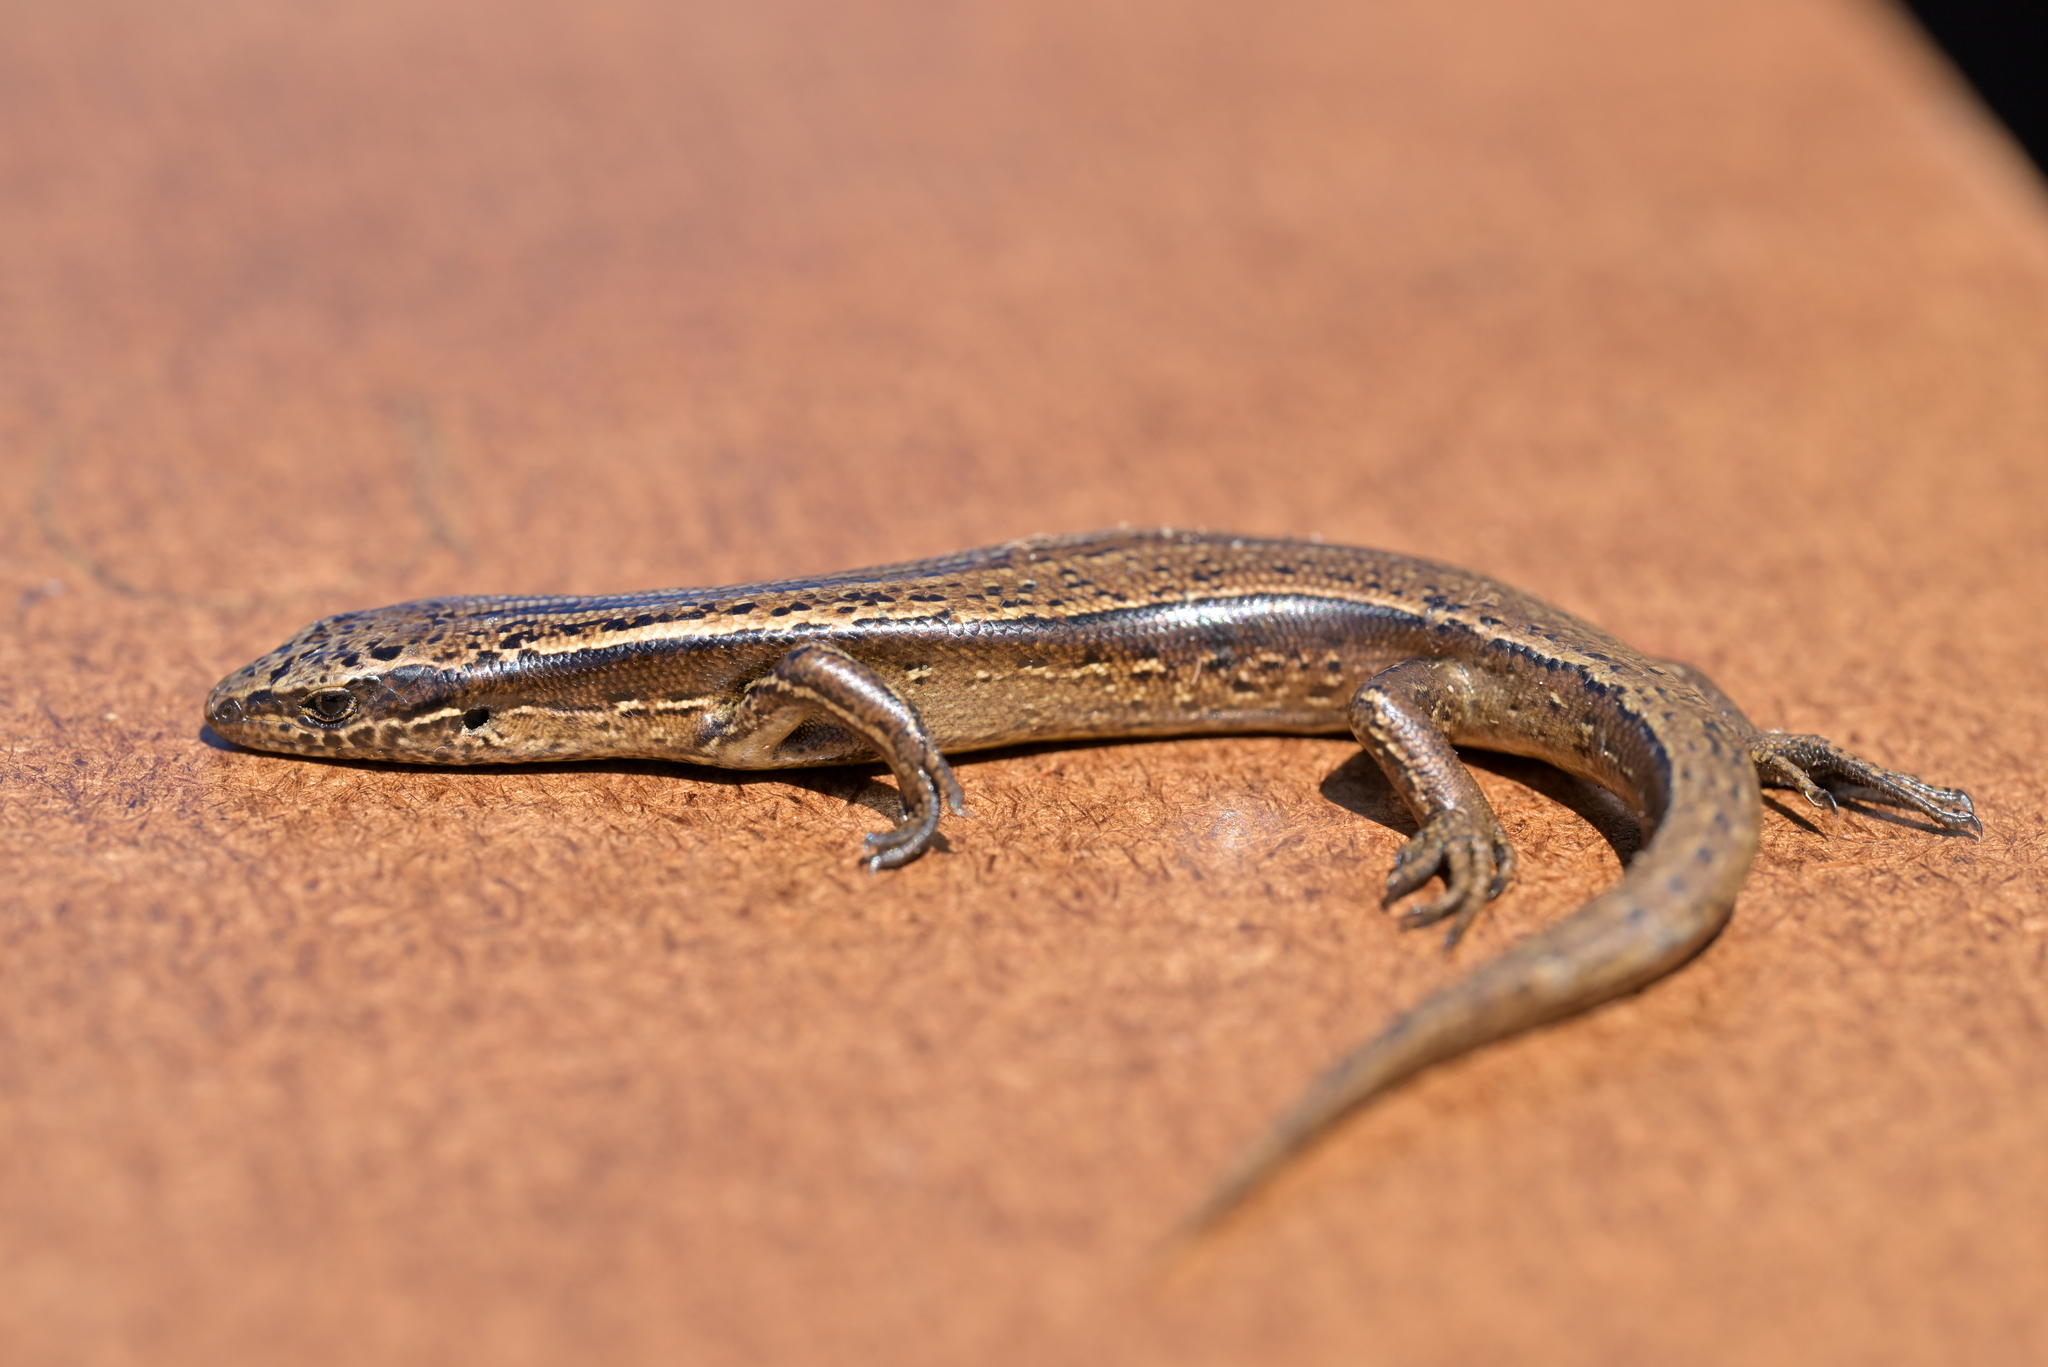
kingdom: Animalia
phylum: Chordata
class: Squamata
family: Scincidae
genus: Oligosoma
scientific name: Oligosoma zelandicum
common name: Brown skink
